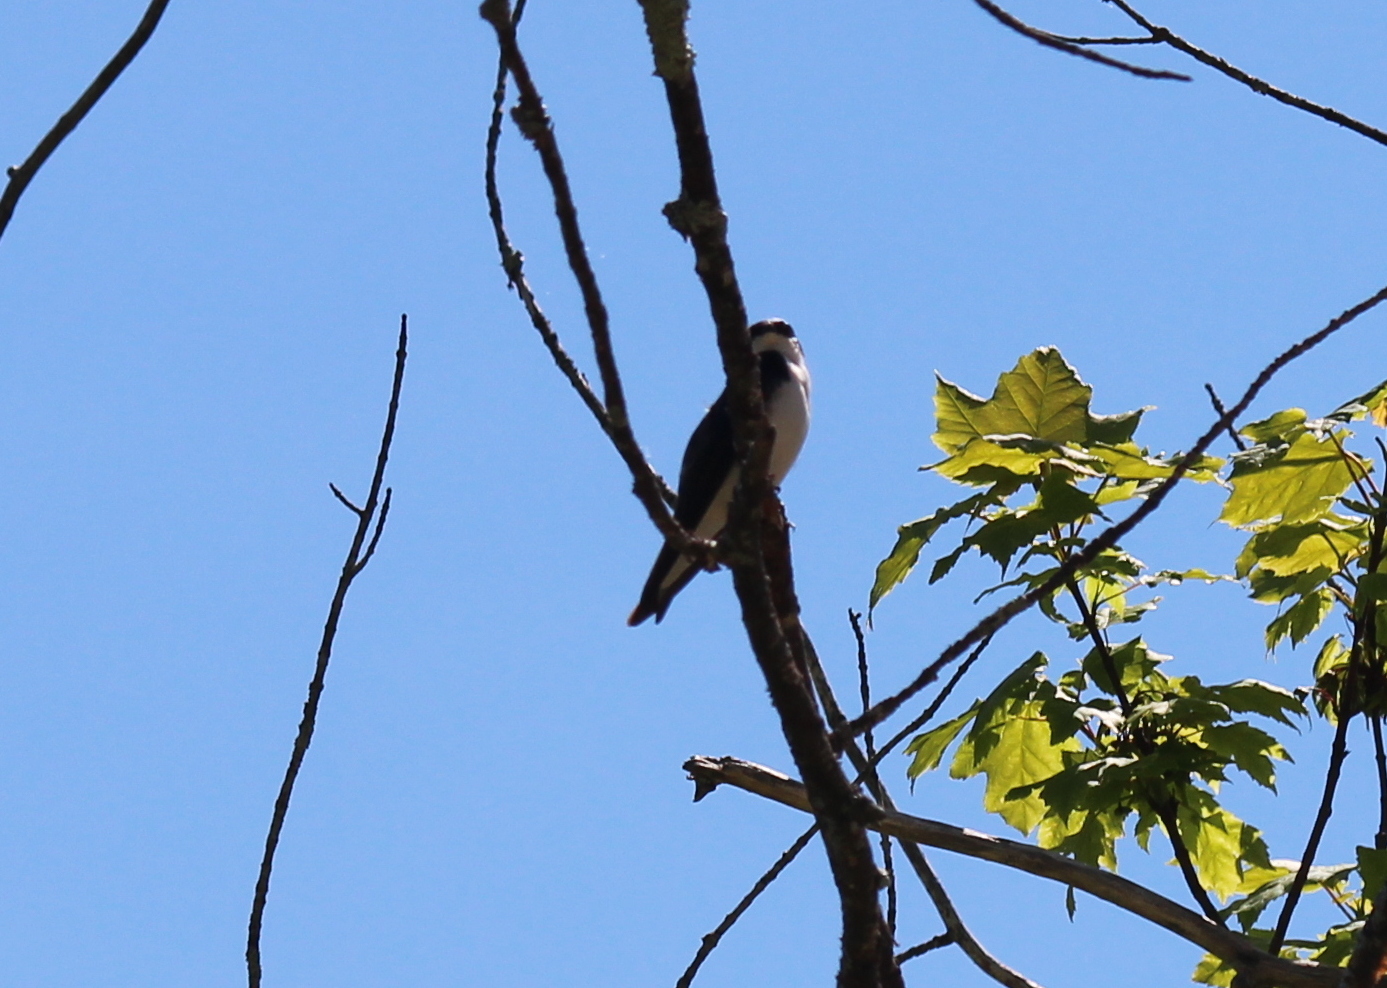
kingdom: Animalia
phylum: Chordata
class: Aves
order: Passeriformes
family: Hirundinidae
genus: Tachycineta
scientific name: Tachycineta bicolor
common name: Tree swallow
